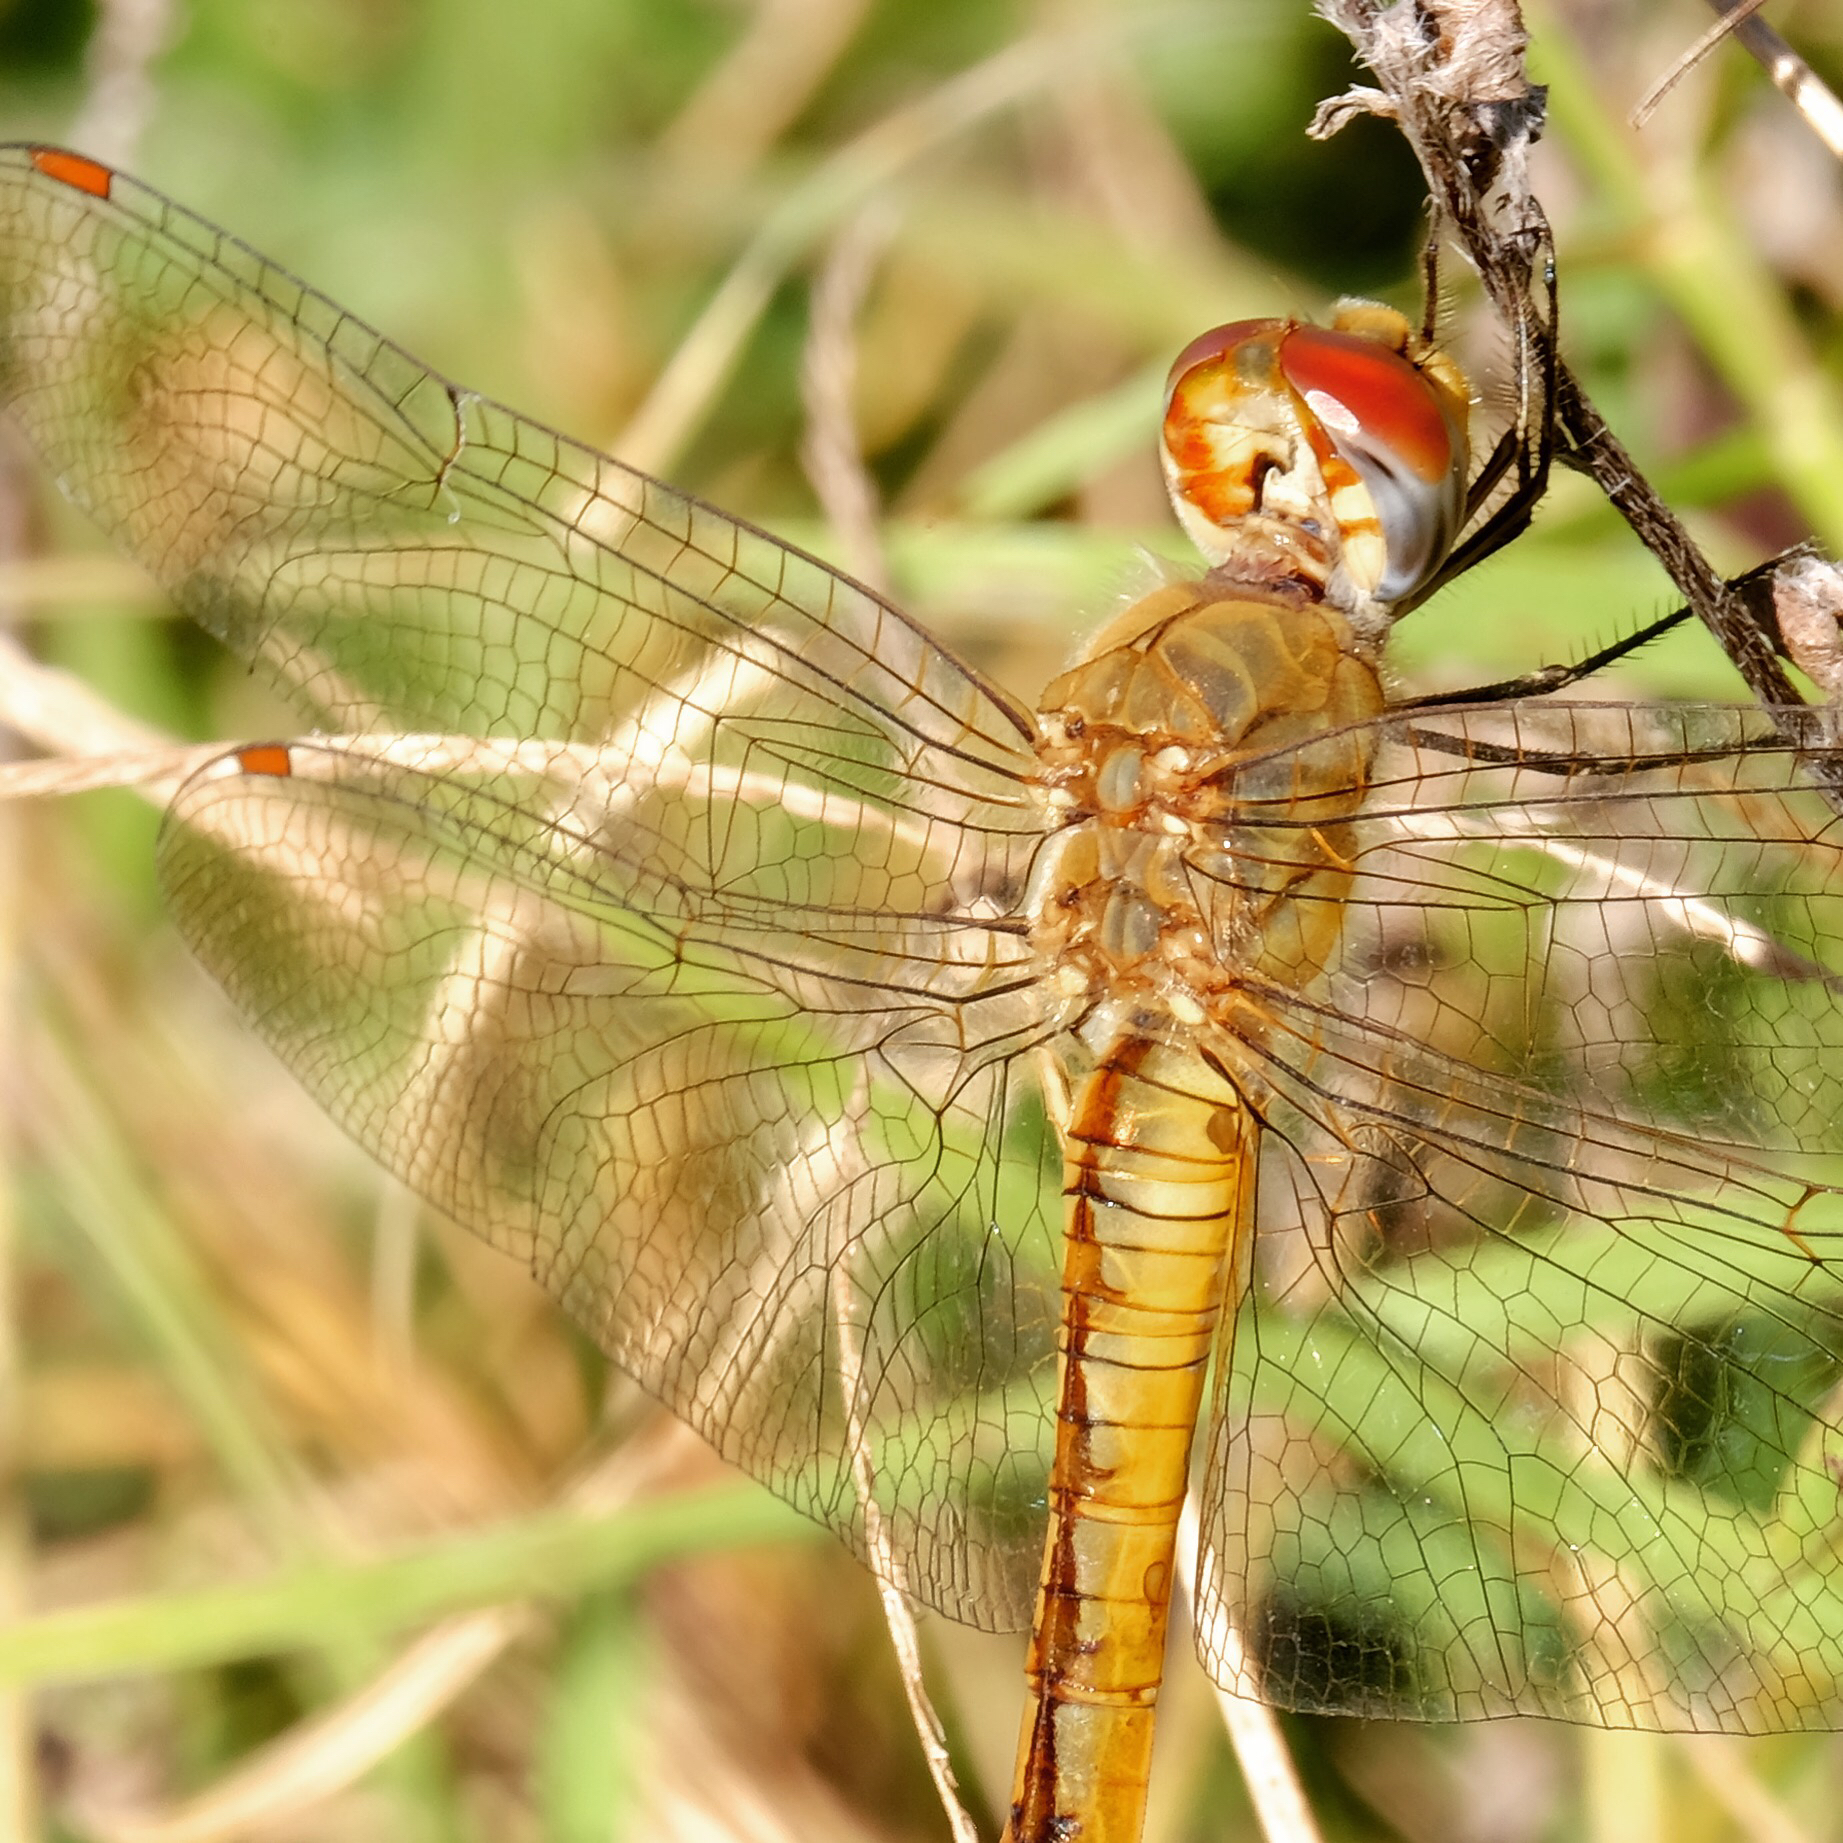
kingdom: Animalia
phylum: Arthropoda
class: Insecta
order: Odonata
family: Libellulidae
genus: Pantala
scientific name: Pantala flavescens
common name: Wandering glider
